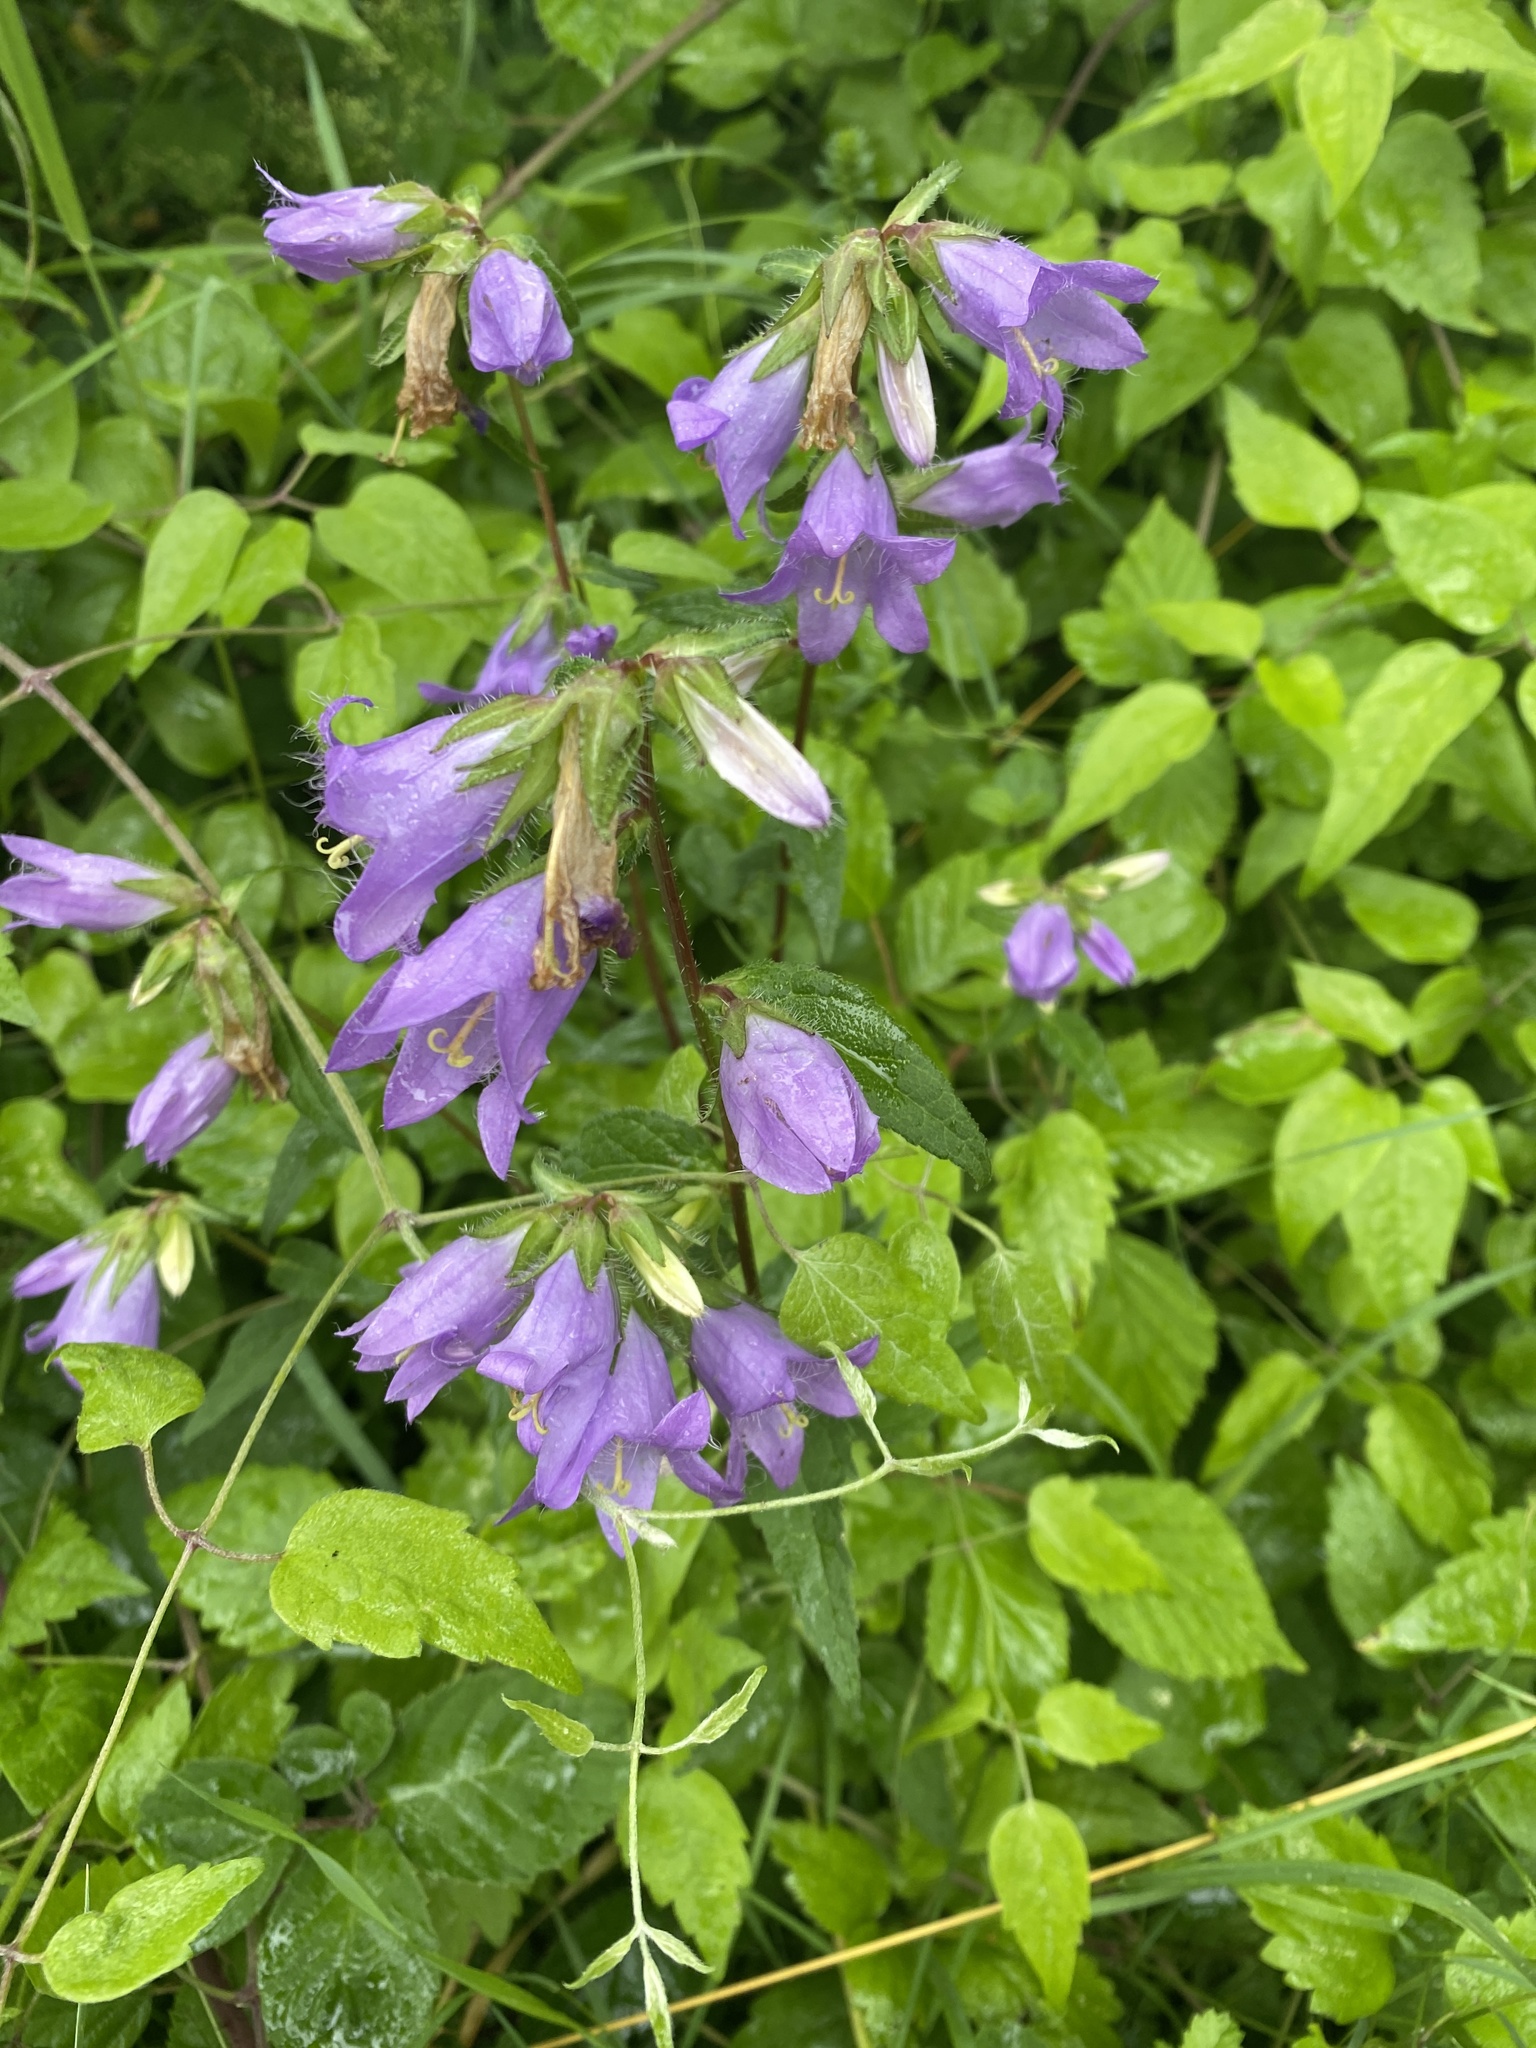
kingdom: Plantae
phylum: Tracheophyta
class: Magnoliopsida
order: Asterales
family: Campanulaceae
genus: Campanula
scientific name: Campanula trachelium
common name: Nettle-leaved bellflower
